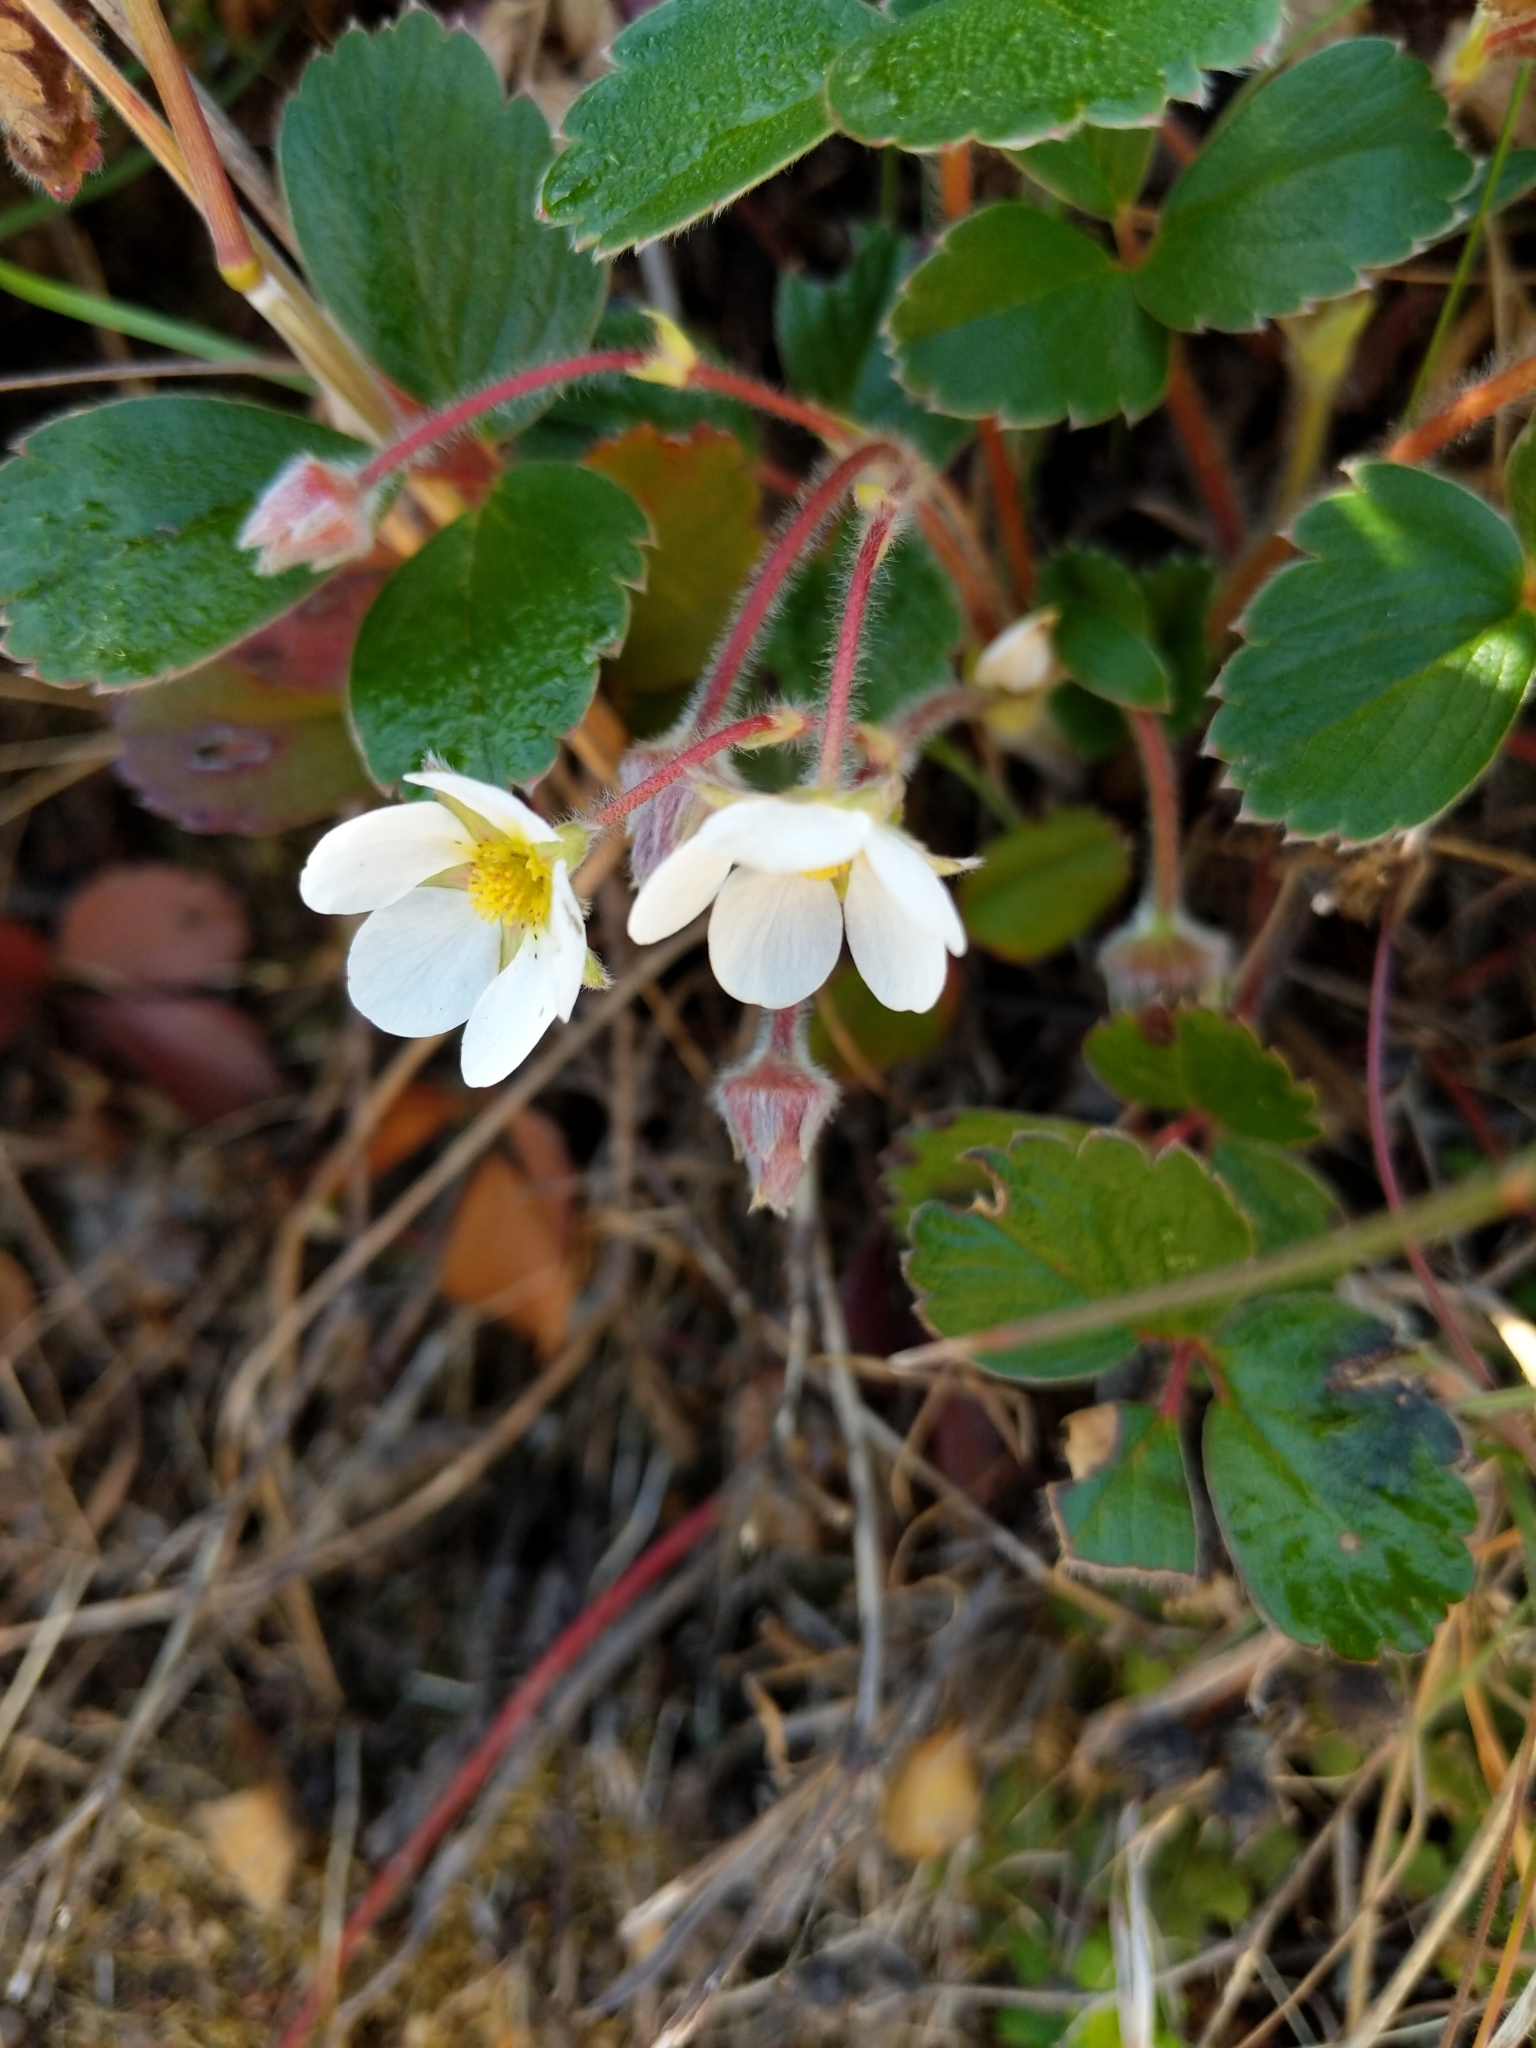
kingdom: Plantae
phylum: Tracheophyta
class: Magnoliopsida
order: Rosales
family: Rosaceae
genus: Fragaria
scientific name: Fragaria chiloensis
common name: Beach strawberry
